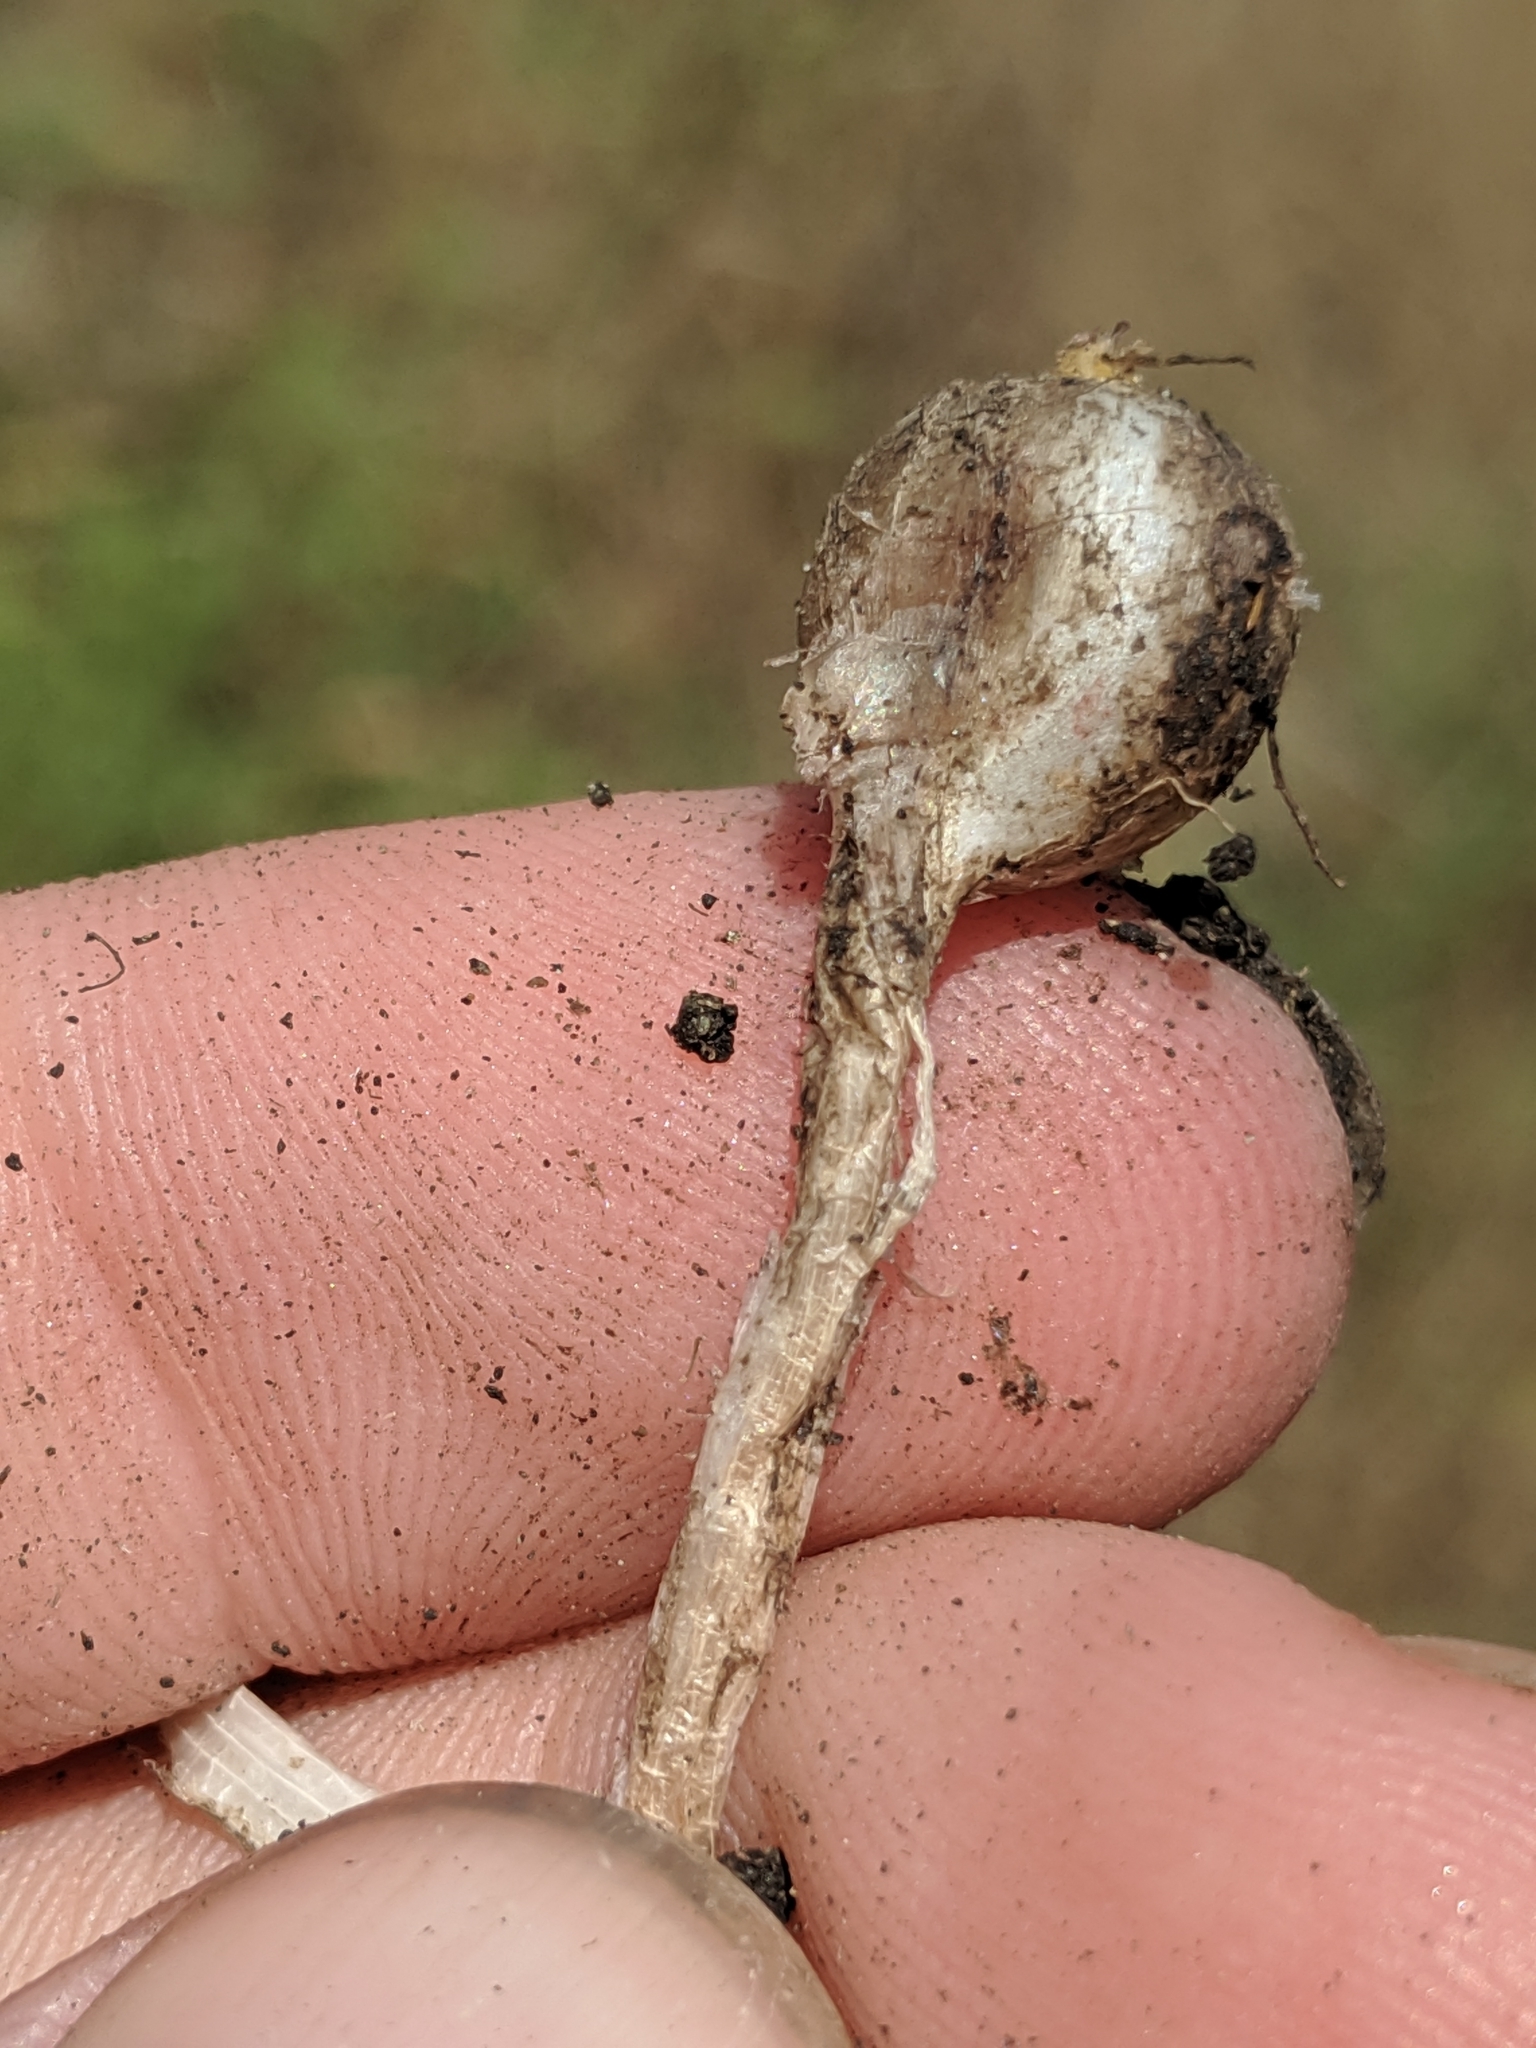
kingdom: Plantae
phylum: Tracheophyta
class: Liliopsida
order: Asparagales
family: Amaryllidaceae
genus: Allium
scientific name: Allium lacunosum
